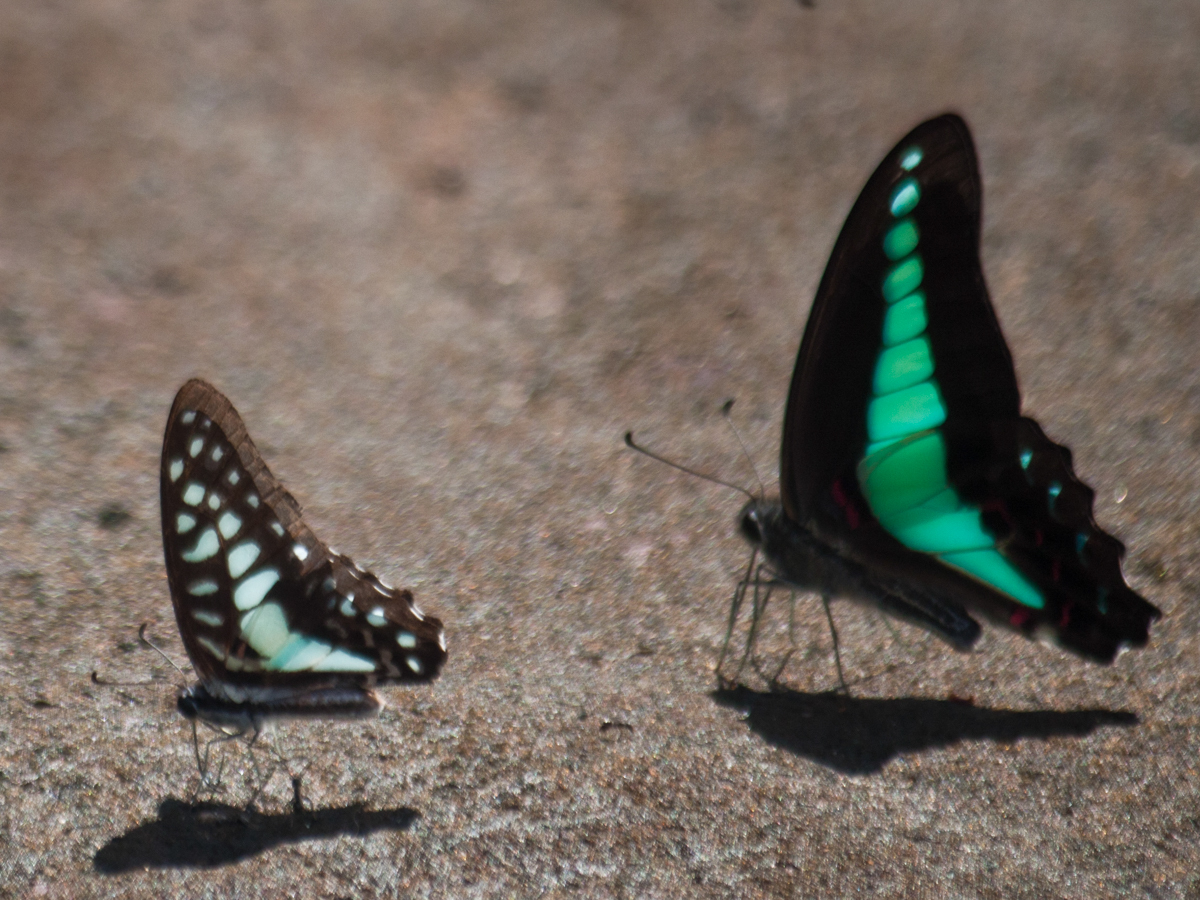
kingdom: Animalia
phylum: Arthropoda
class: Insecta
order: Lepidoptera
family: Papilionidae
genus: Graphium
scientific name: Graphium doson
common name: Common jay
